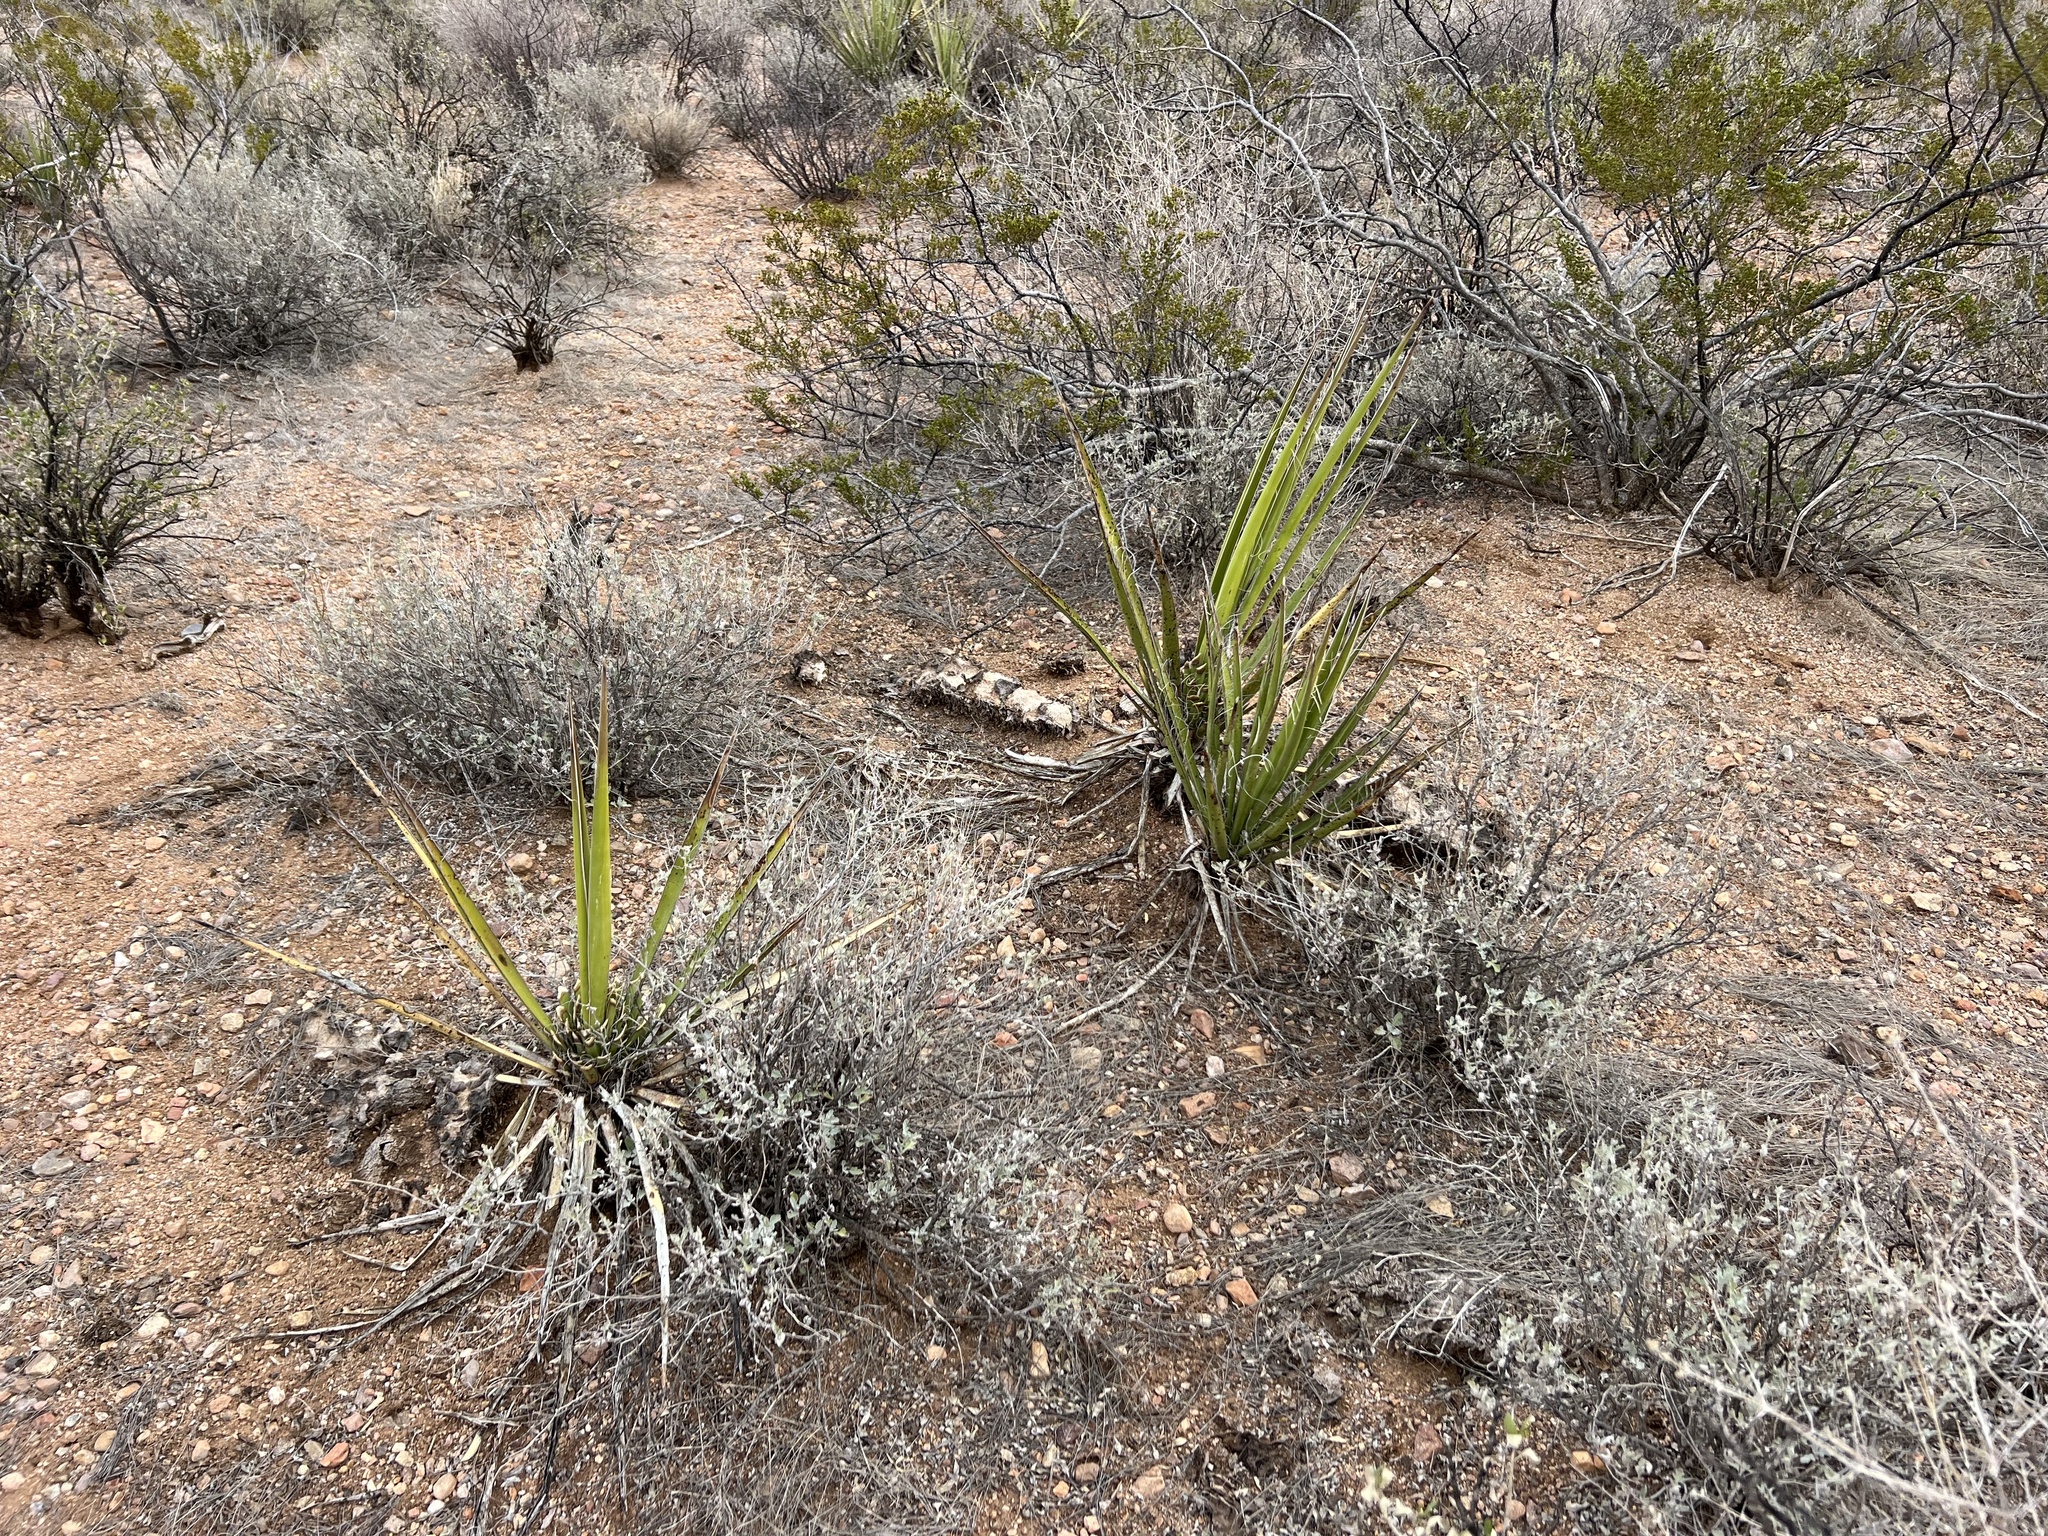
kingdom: Plantae
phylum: Tracheophyta
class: Liliopsida
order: Asparagales
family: Asparagaceae
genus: Yucca
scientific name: Yucca baccata
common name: Banana yucca
